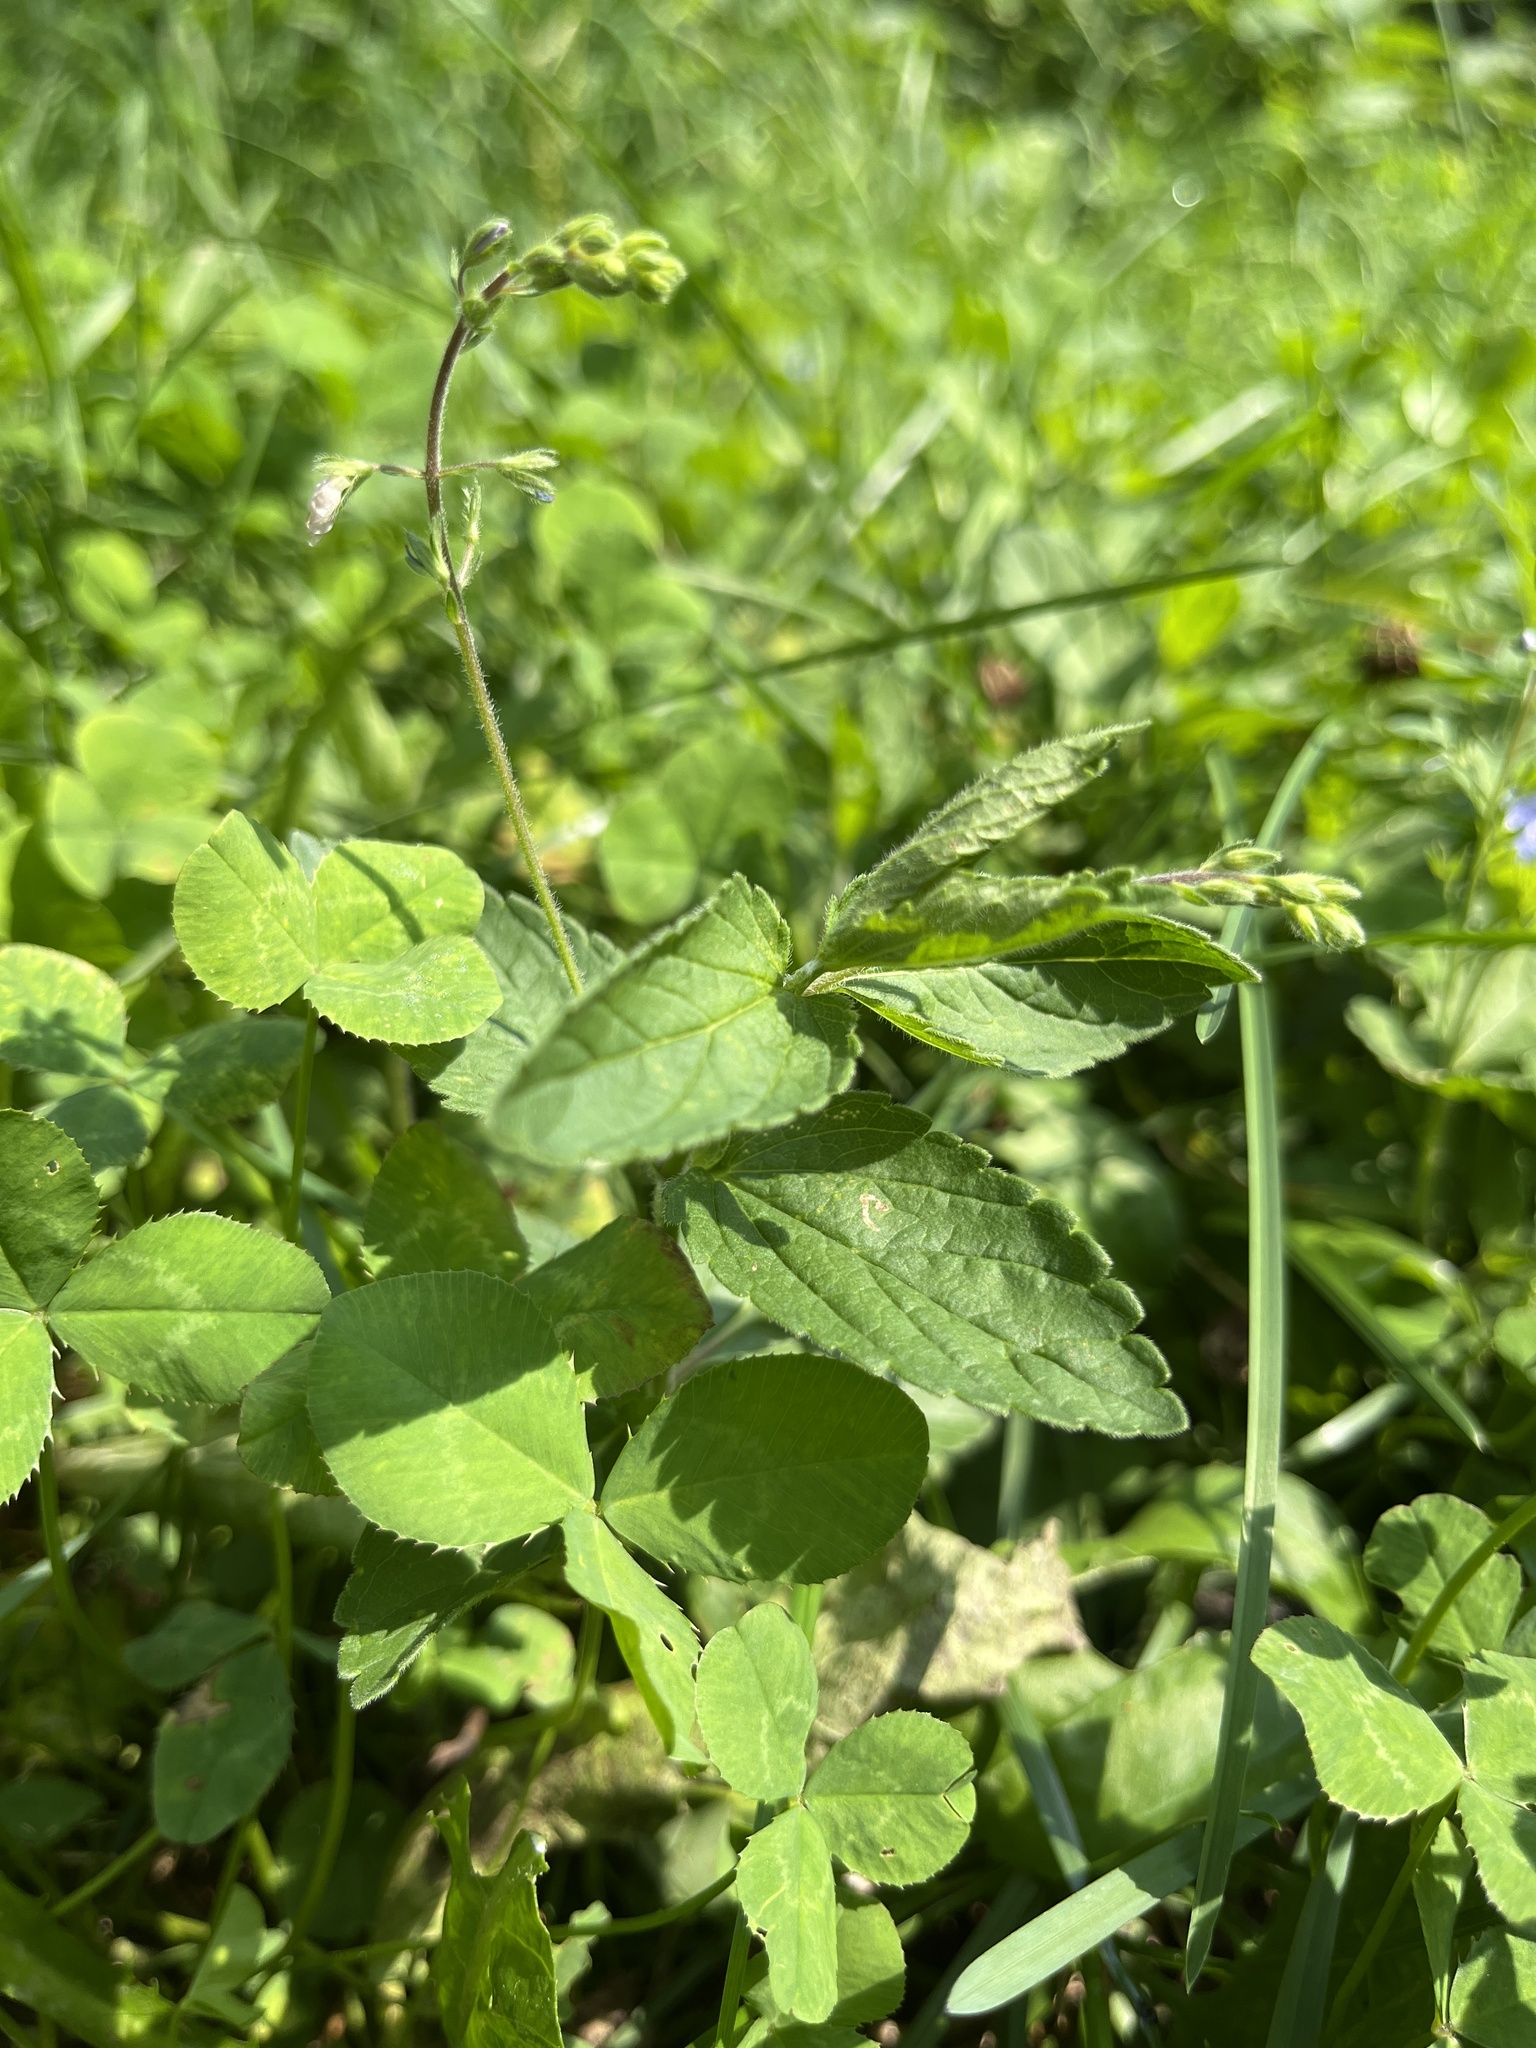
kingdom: Plantae
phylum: Tracheophyta
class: Magnoliopsida
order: Lamiales
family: Plantaginaceae
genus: Veronica
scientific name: Veronica chamaedrys
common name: Germander speedwell
